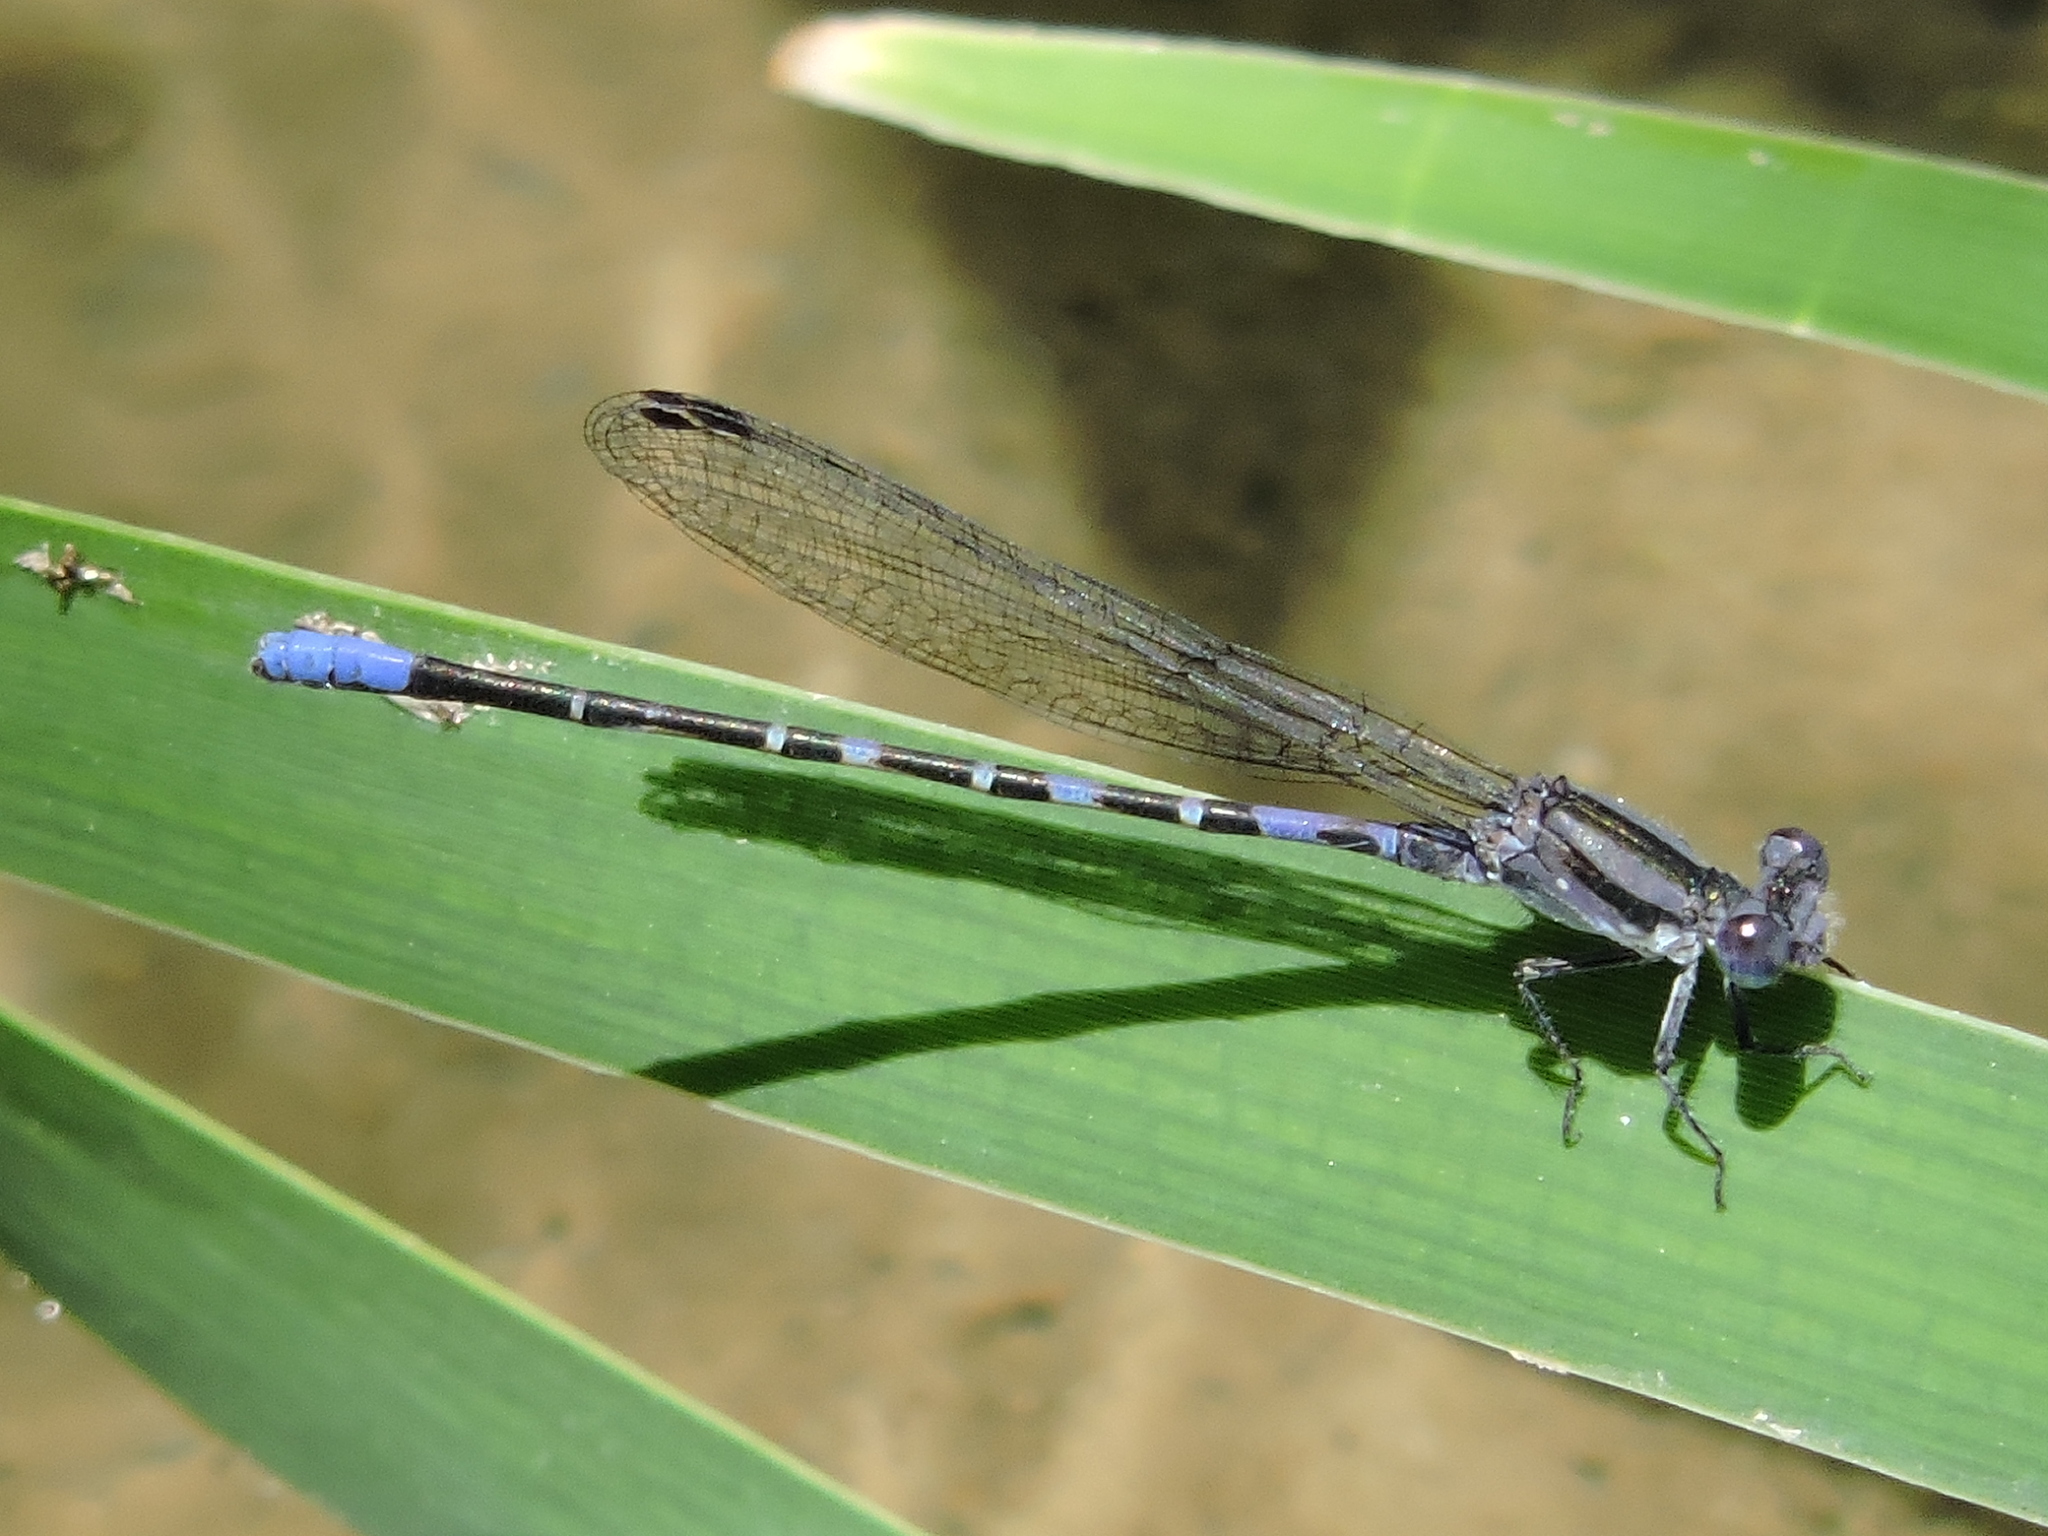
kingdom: Animalia
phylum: Arthropoda
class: Insecta
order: Odonata
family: Coenagrionidae
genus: Argia
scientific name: Argia immunda
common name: Kiowa dancer
